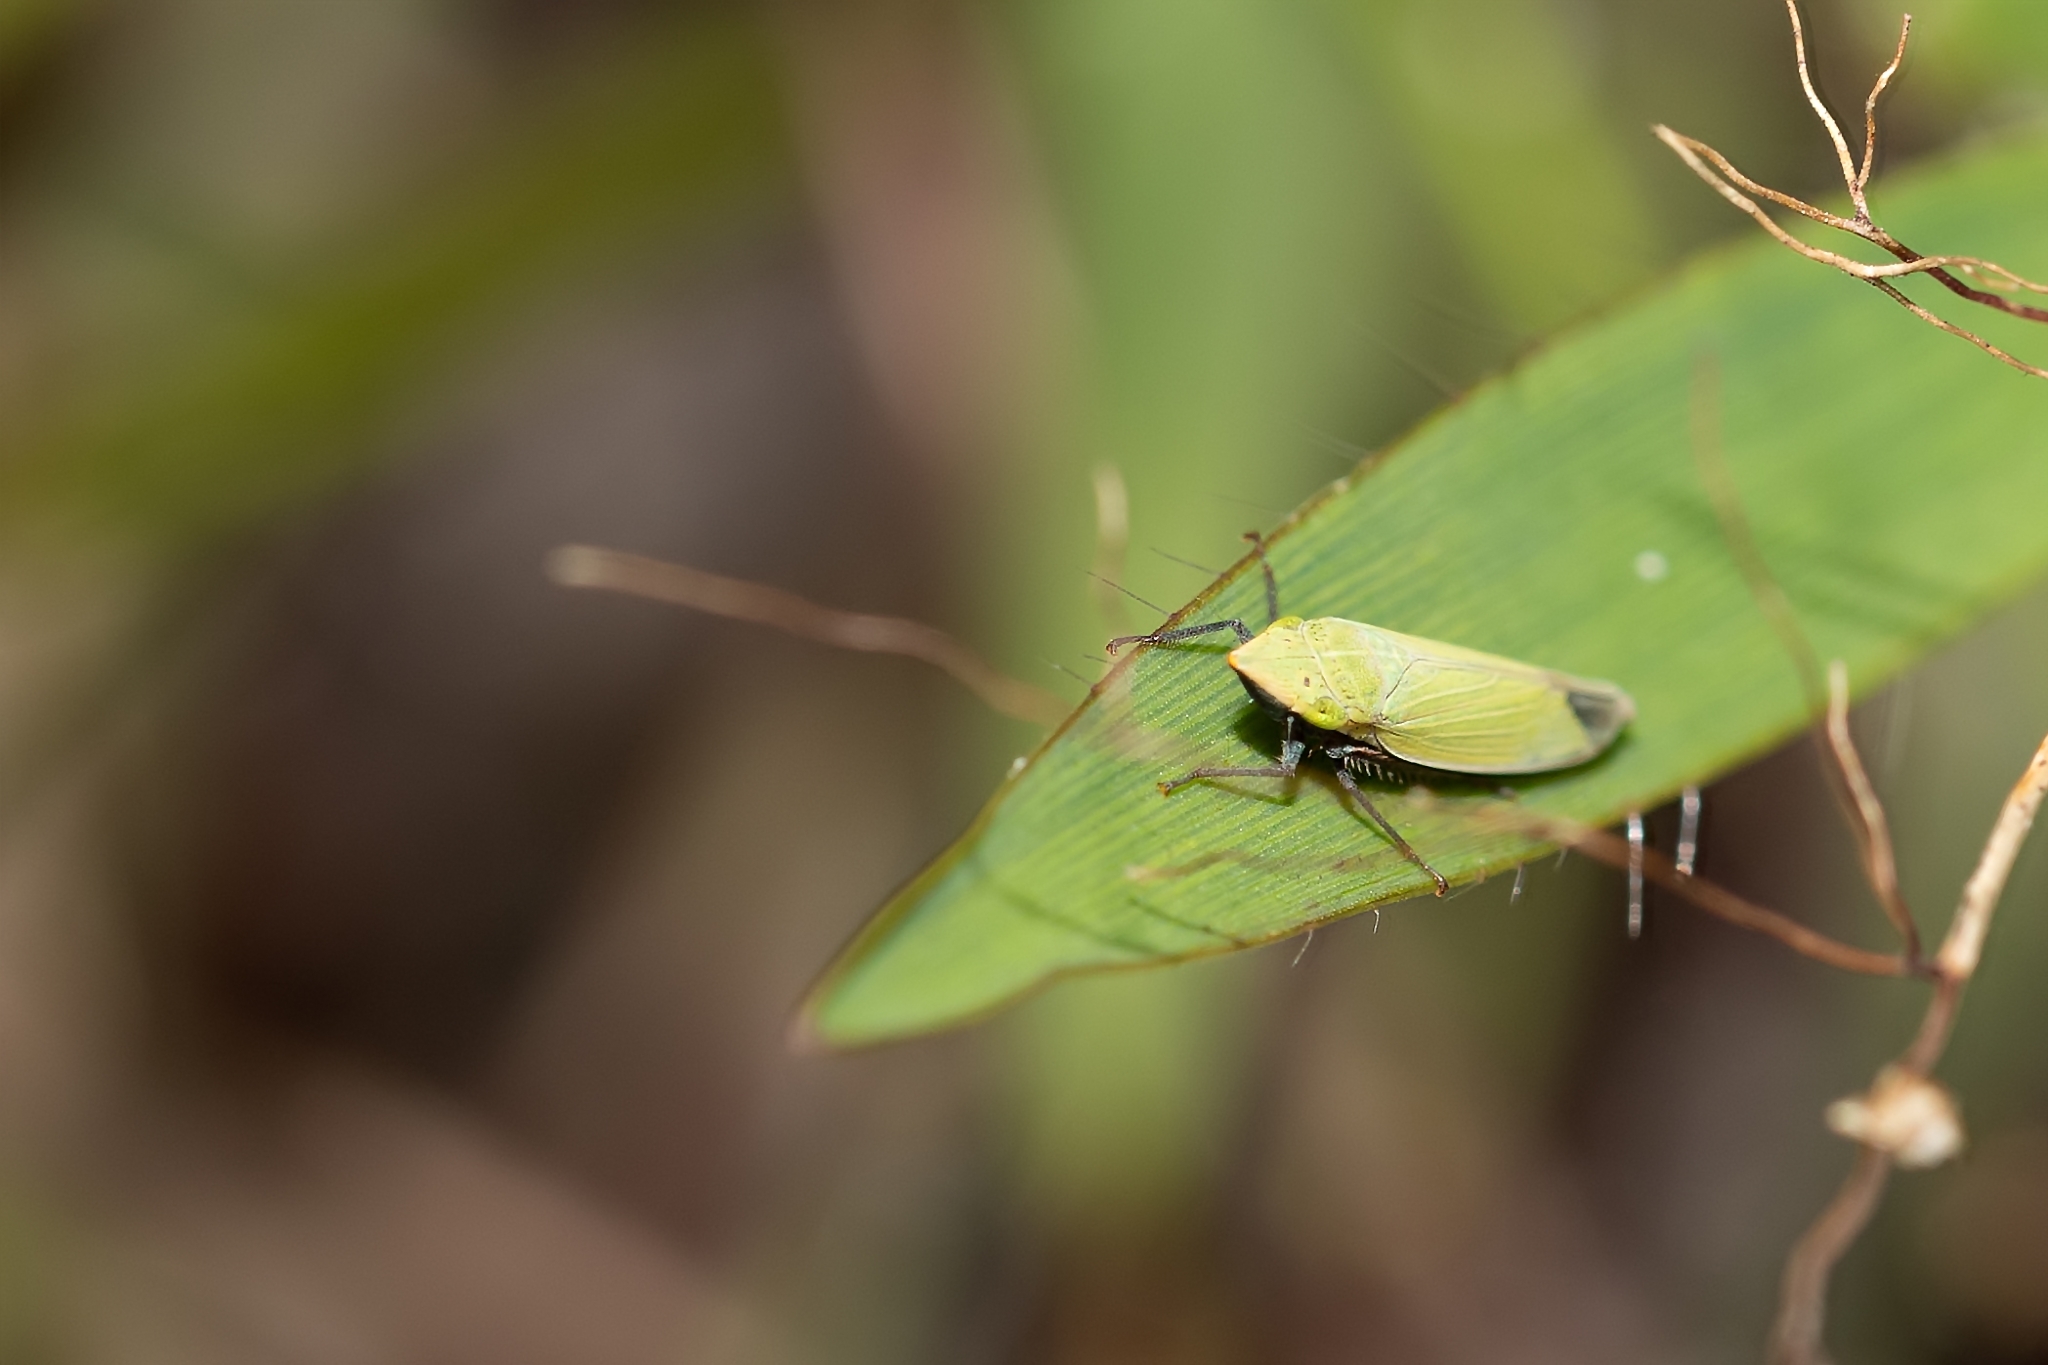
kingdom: Animalia
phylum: Arthropoda
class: Insecta
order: Hemiptera
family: Cicadellidae
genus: Draeculacephala
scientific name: Draeculacephala bradleyi
